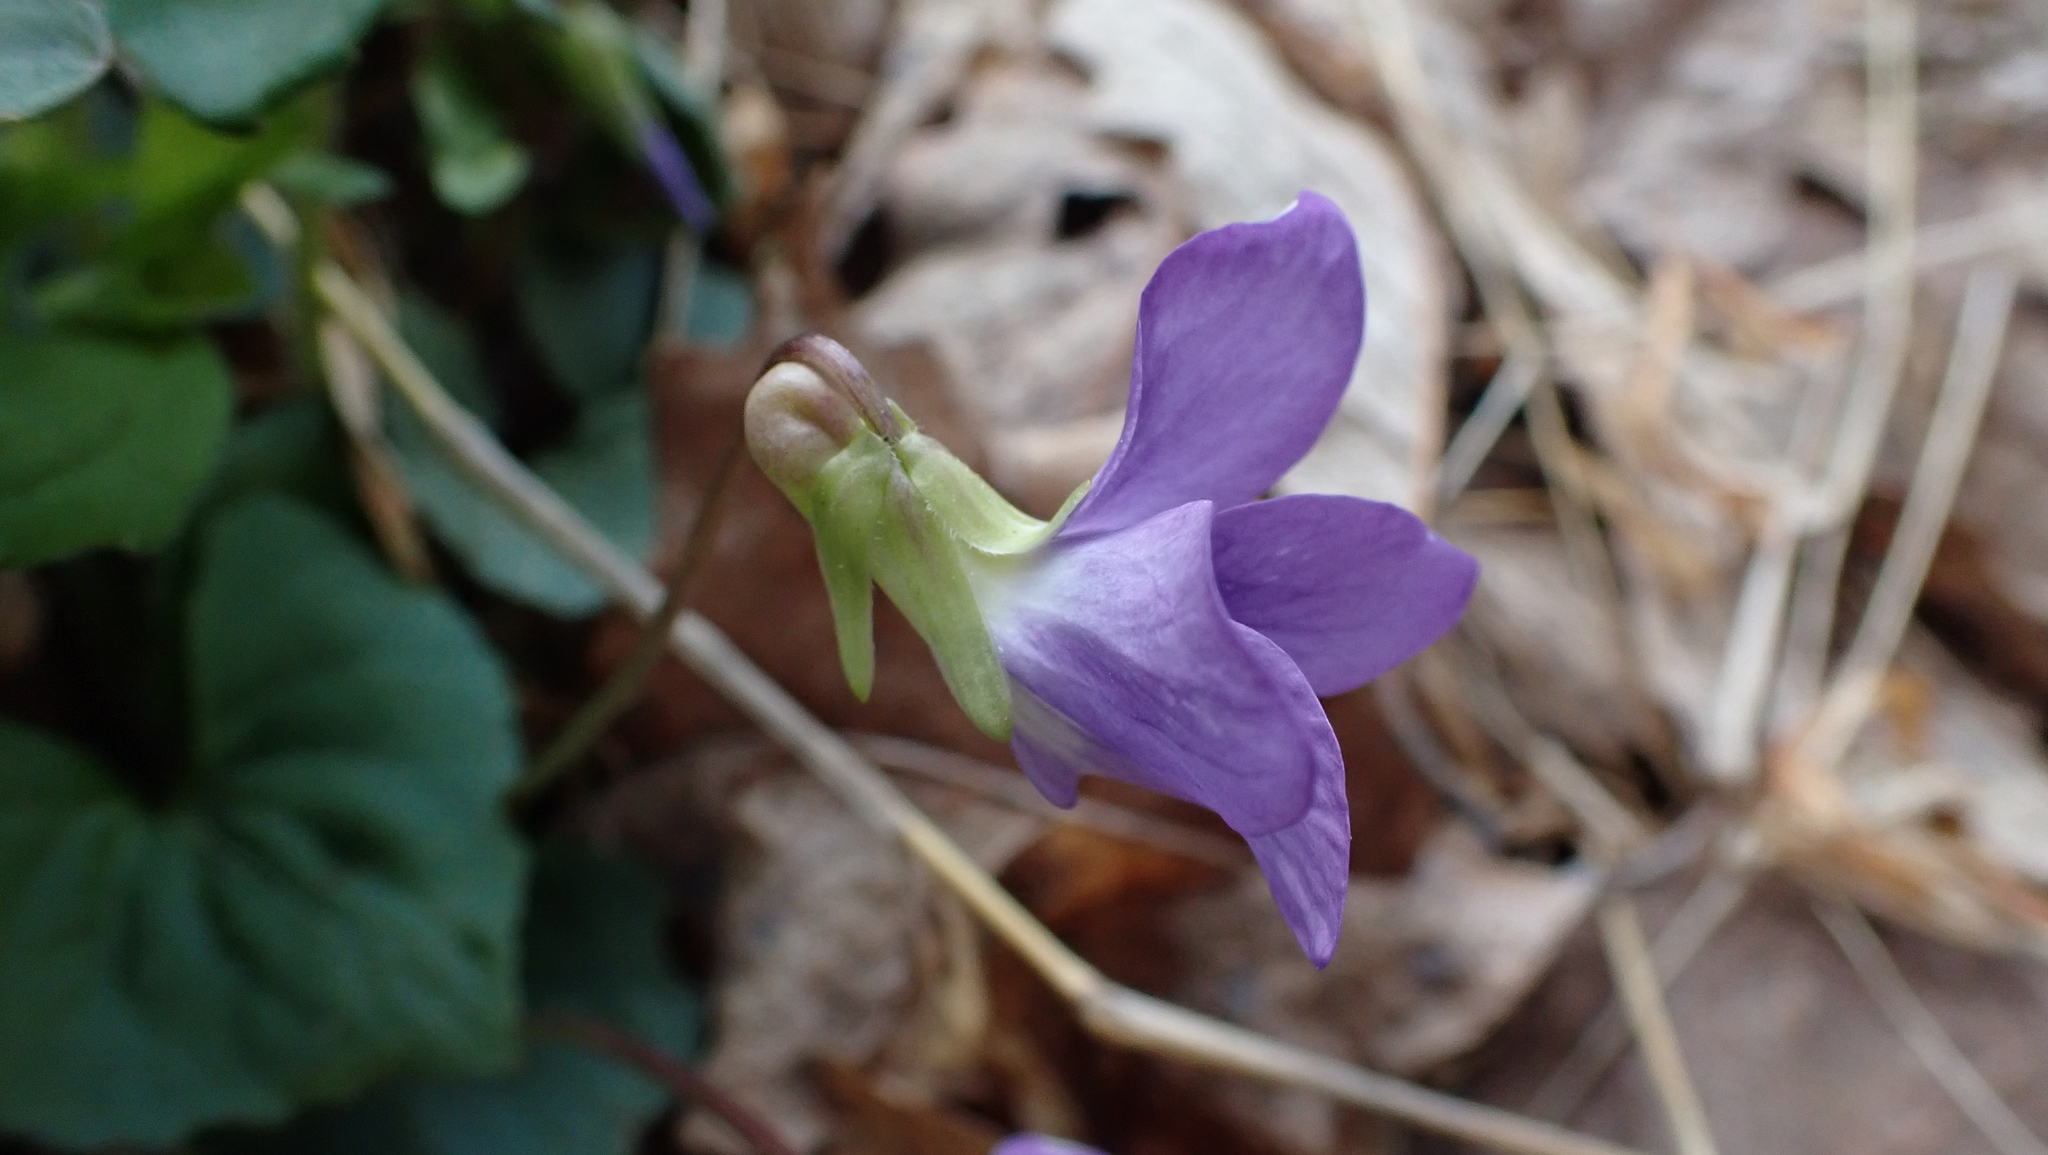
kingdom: Plantae
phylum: Tracheophyta
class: Magnoliopsida
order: Malpighiales
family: Violaceae
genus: Viola
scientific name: Viola palmata
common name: Early blue violet
